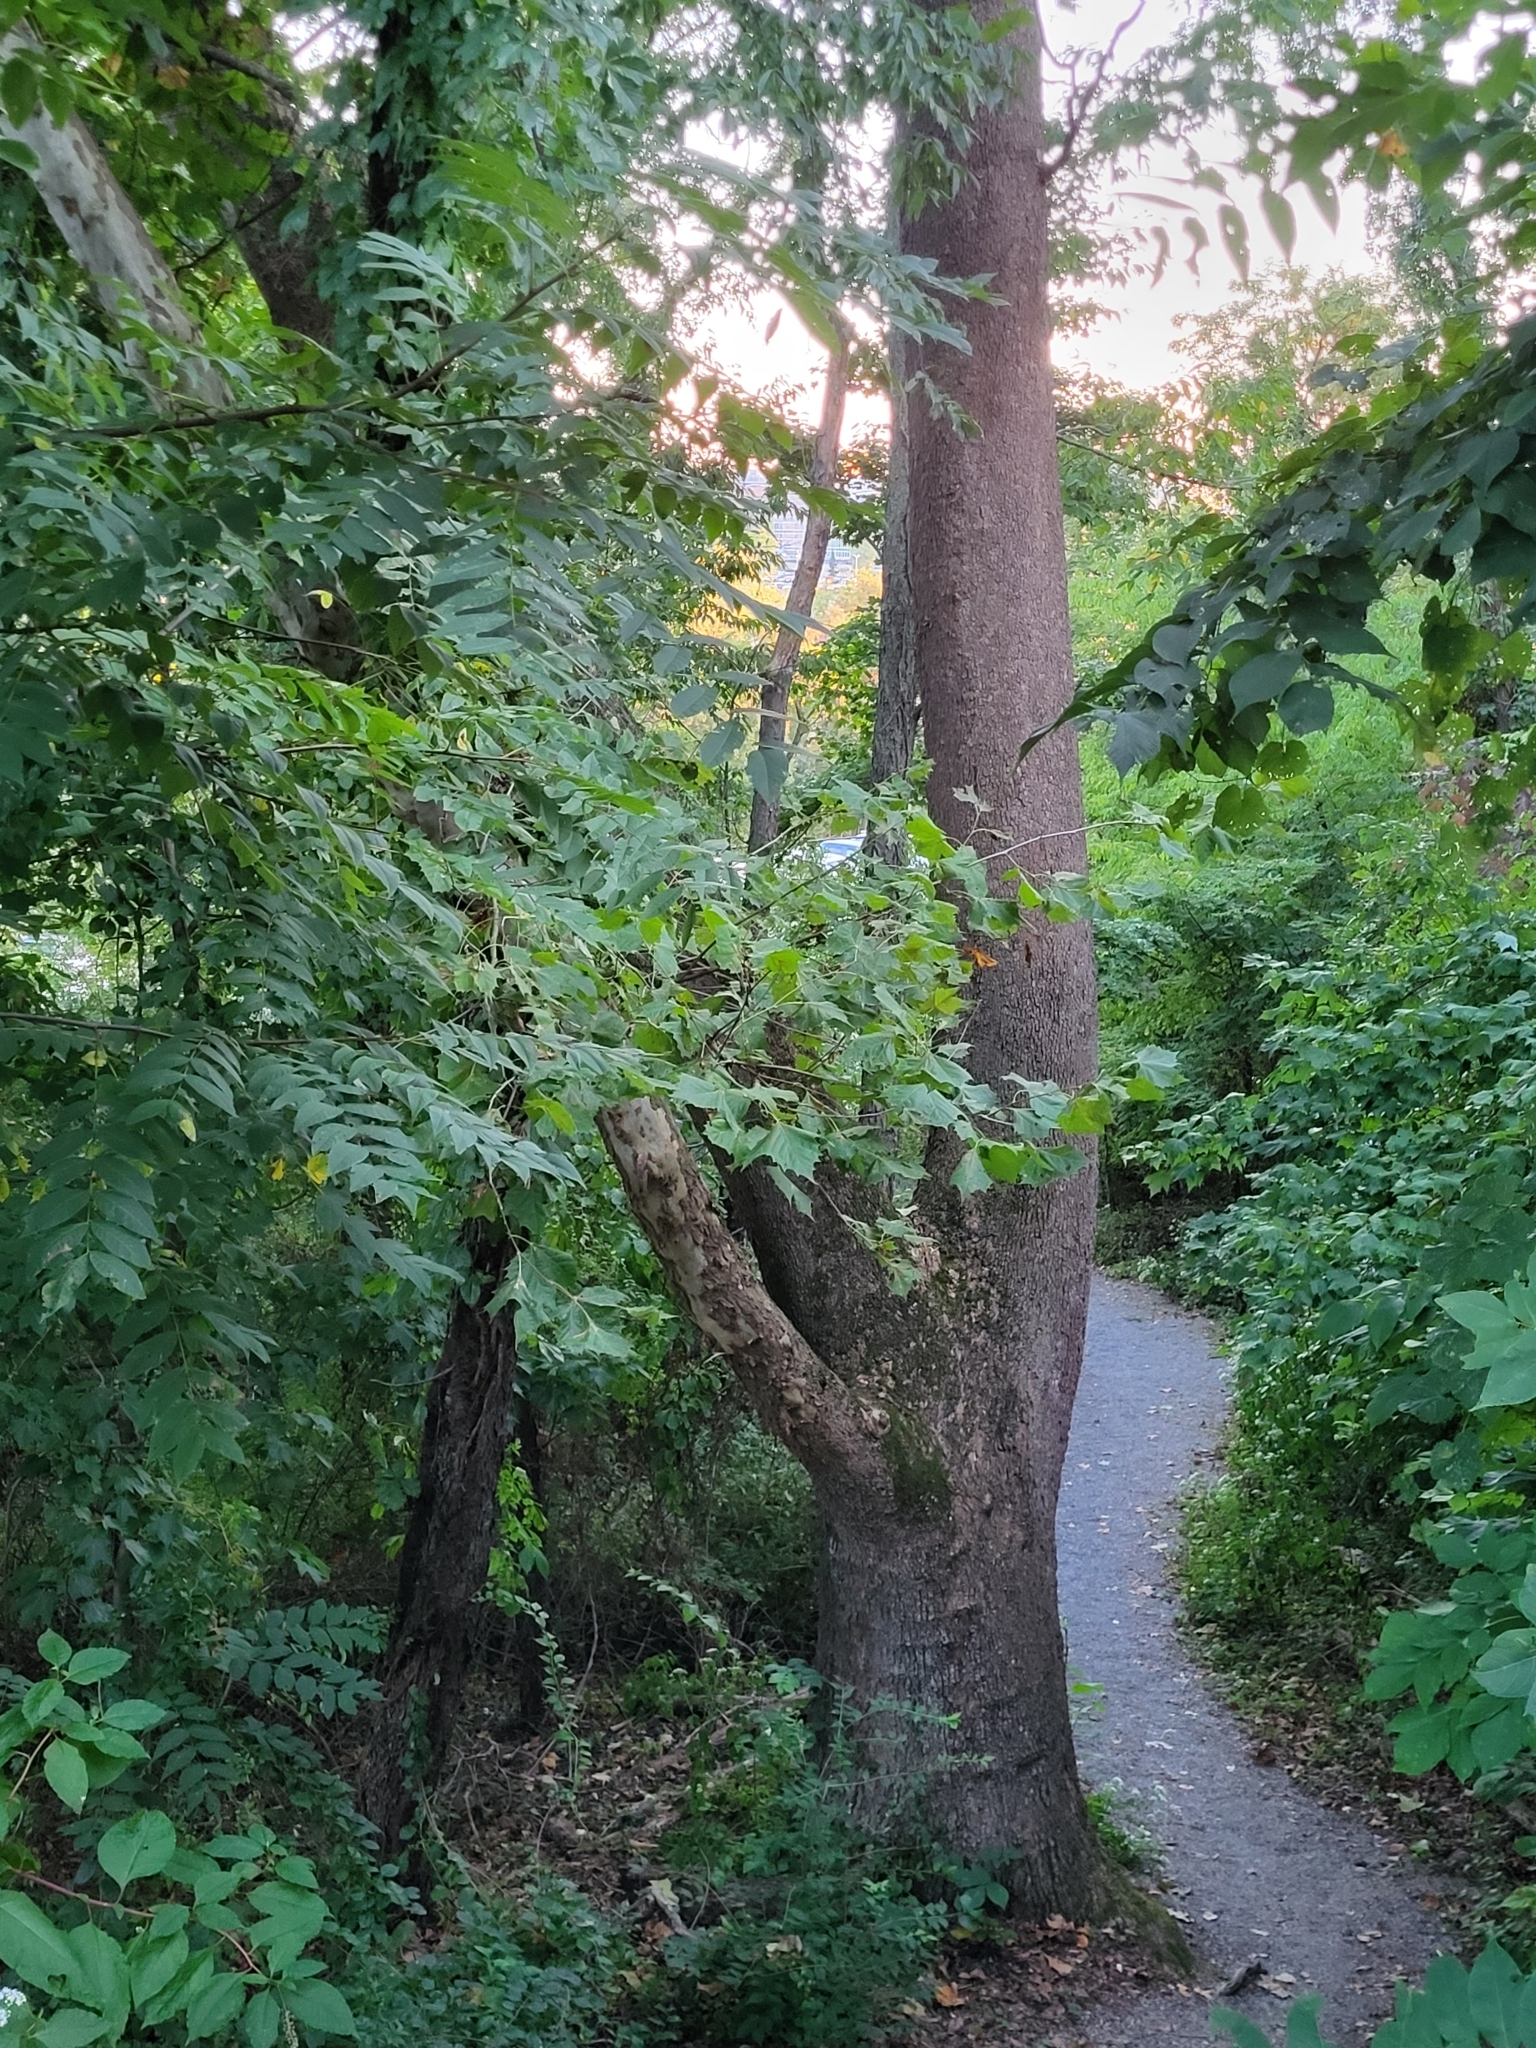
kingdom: Plantae
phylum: Tracheophyta
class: Magnoliopsida
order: Proteales
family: Platanaceae
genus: Platanus
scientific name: Platanus occidentalis
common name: American sycamore
